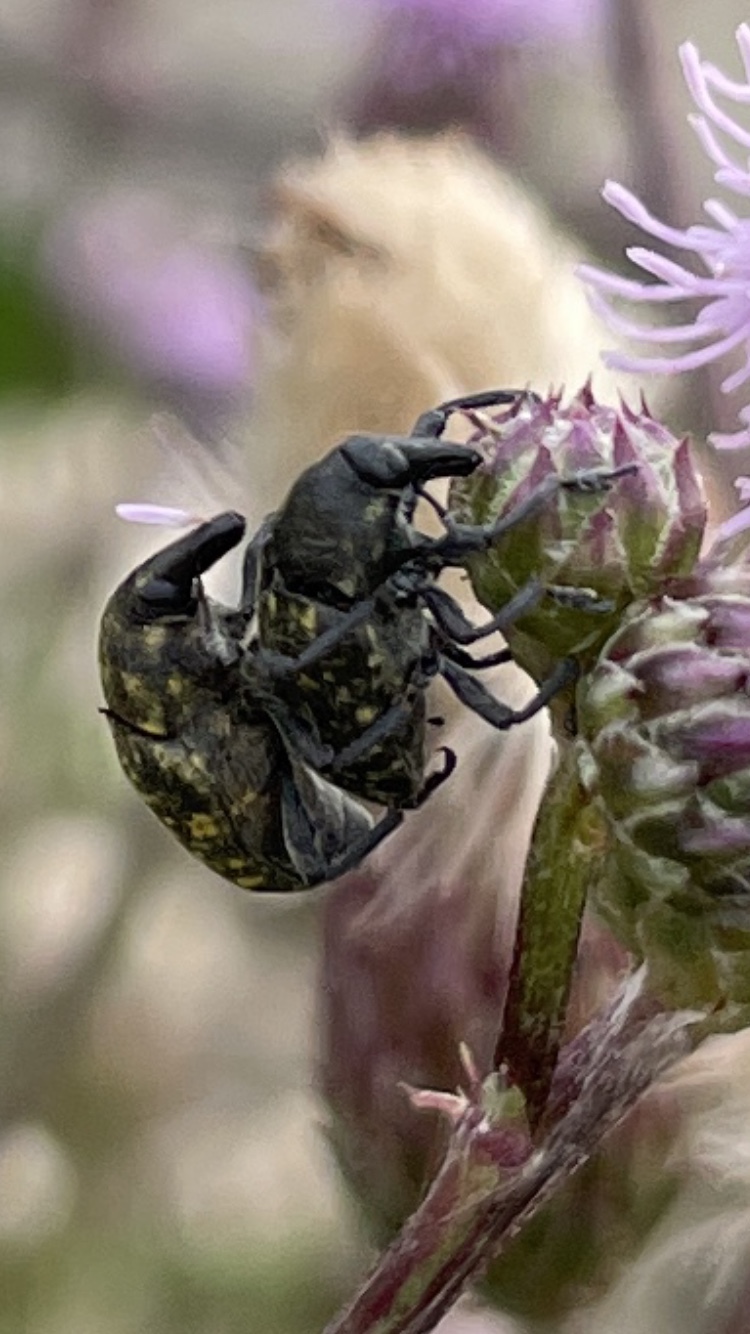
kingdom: Animalia
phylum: Arthropoda
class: Insecta
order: Coleoptera
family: Curculionidae
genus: Larinus
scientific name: Larinus turbinatus
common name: Weevil
